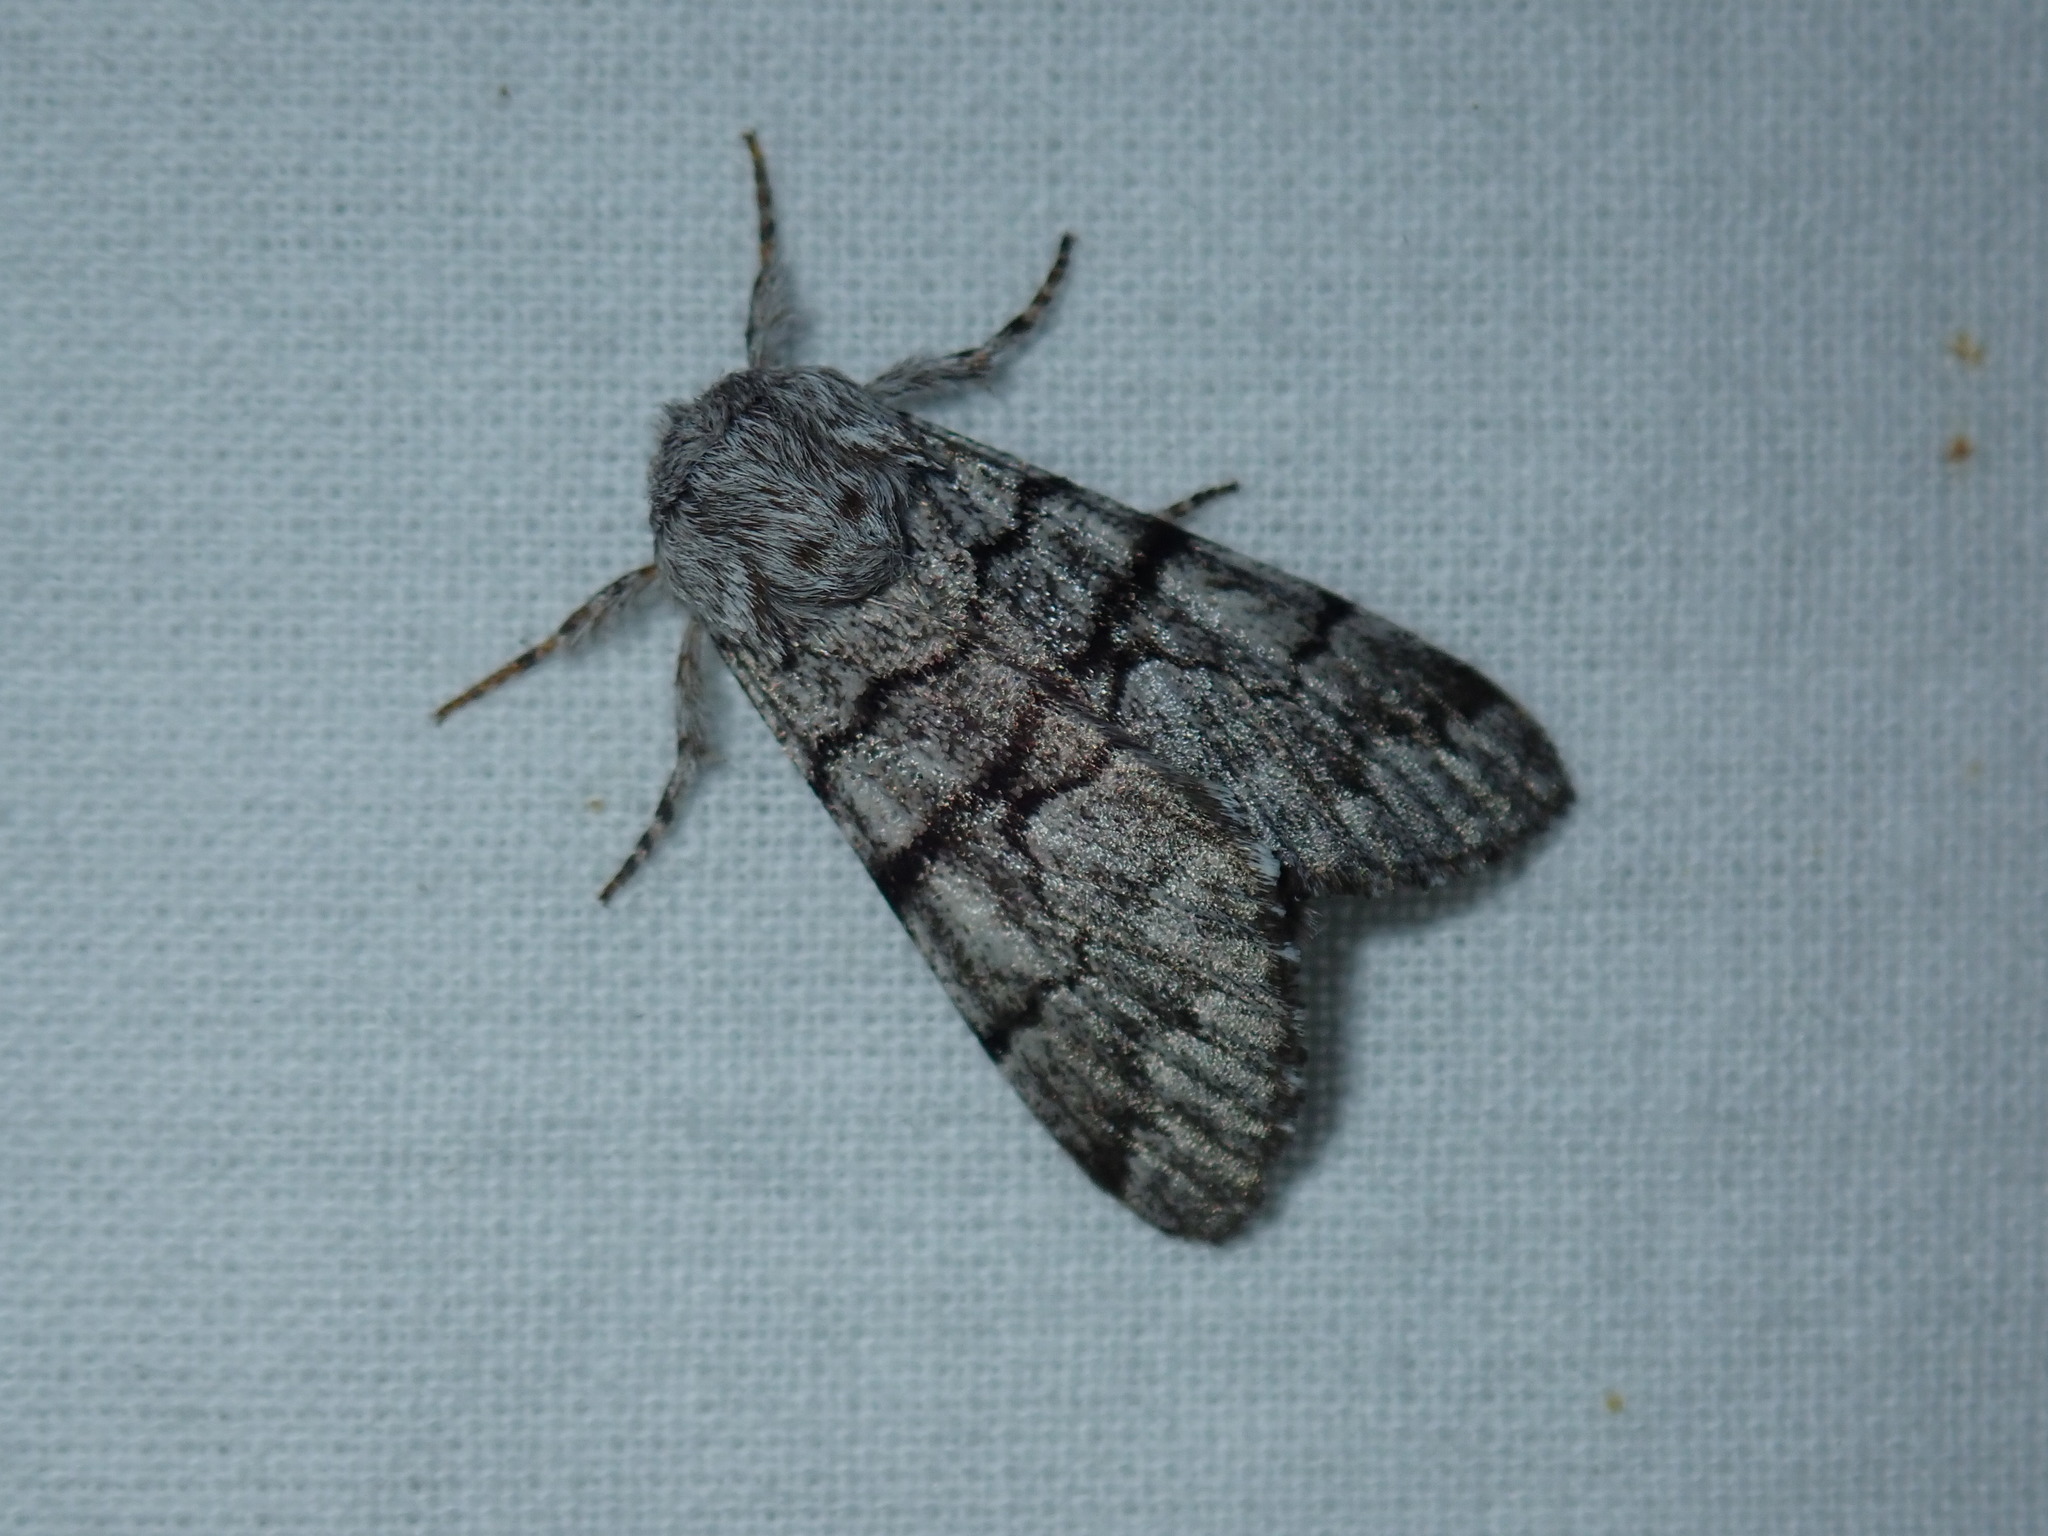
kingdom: Animalia
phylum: Arthropoda
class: Insecta
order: Lepidoptera
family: Noctuidae
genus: Panthea
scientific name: Panthea furcilla
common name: Eastern panthea moth
